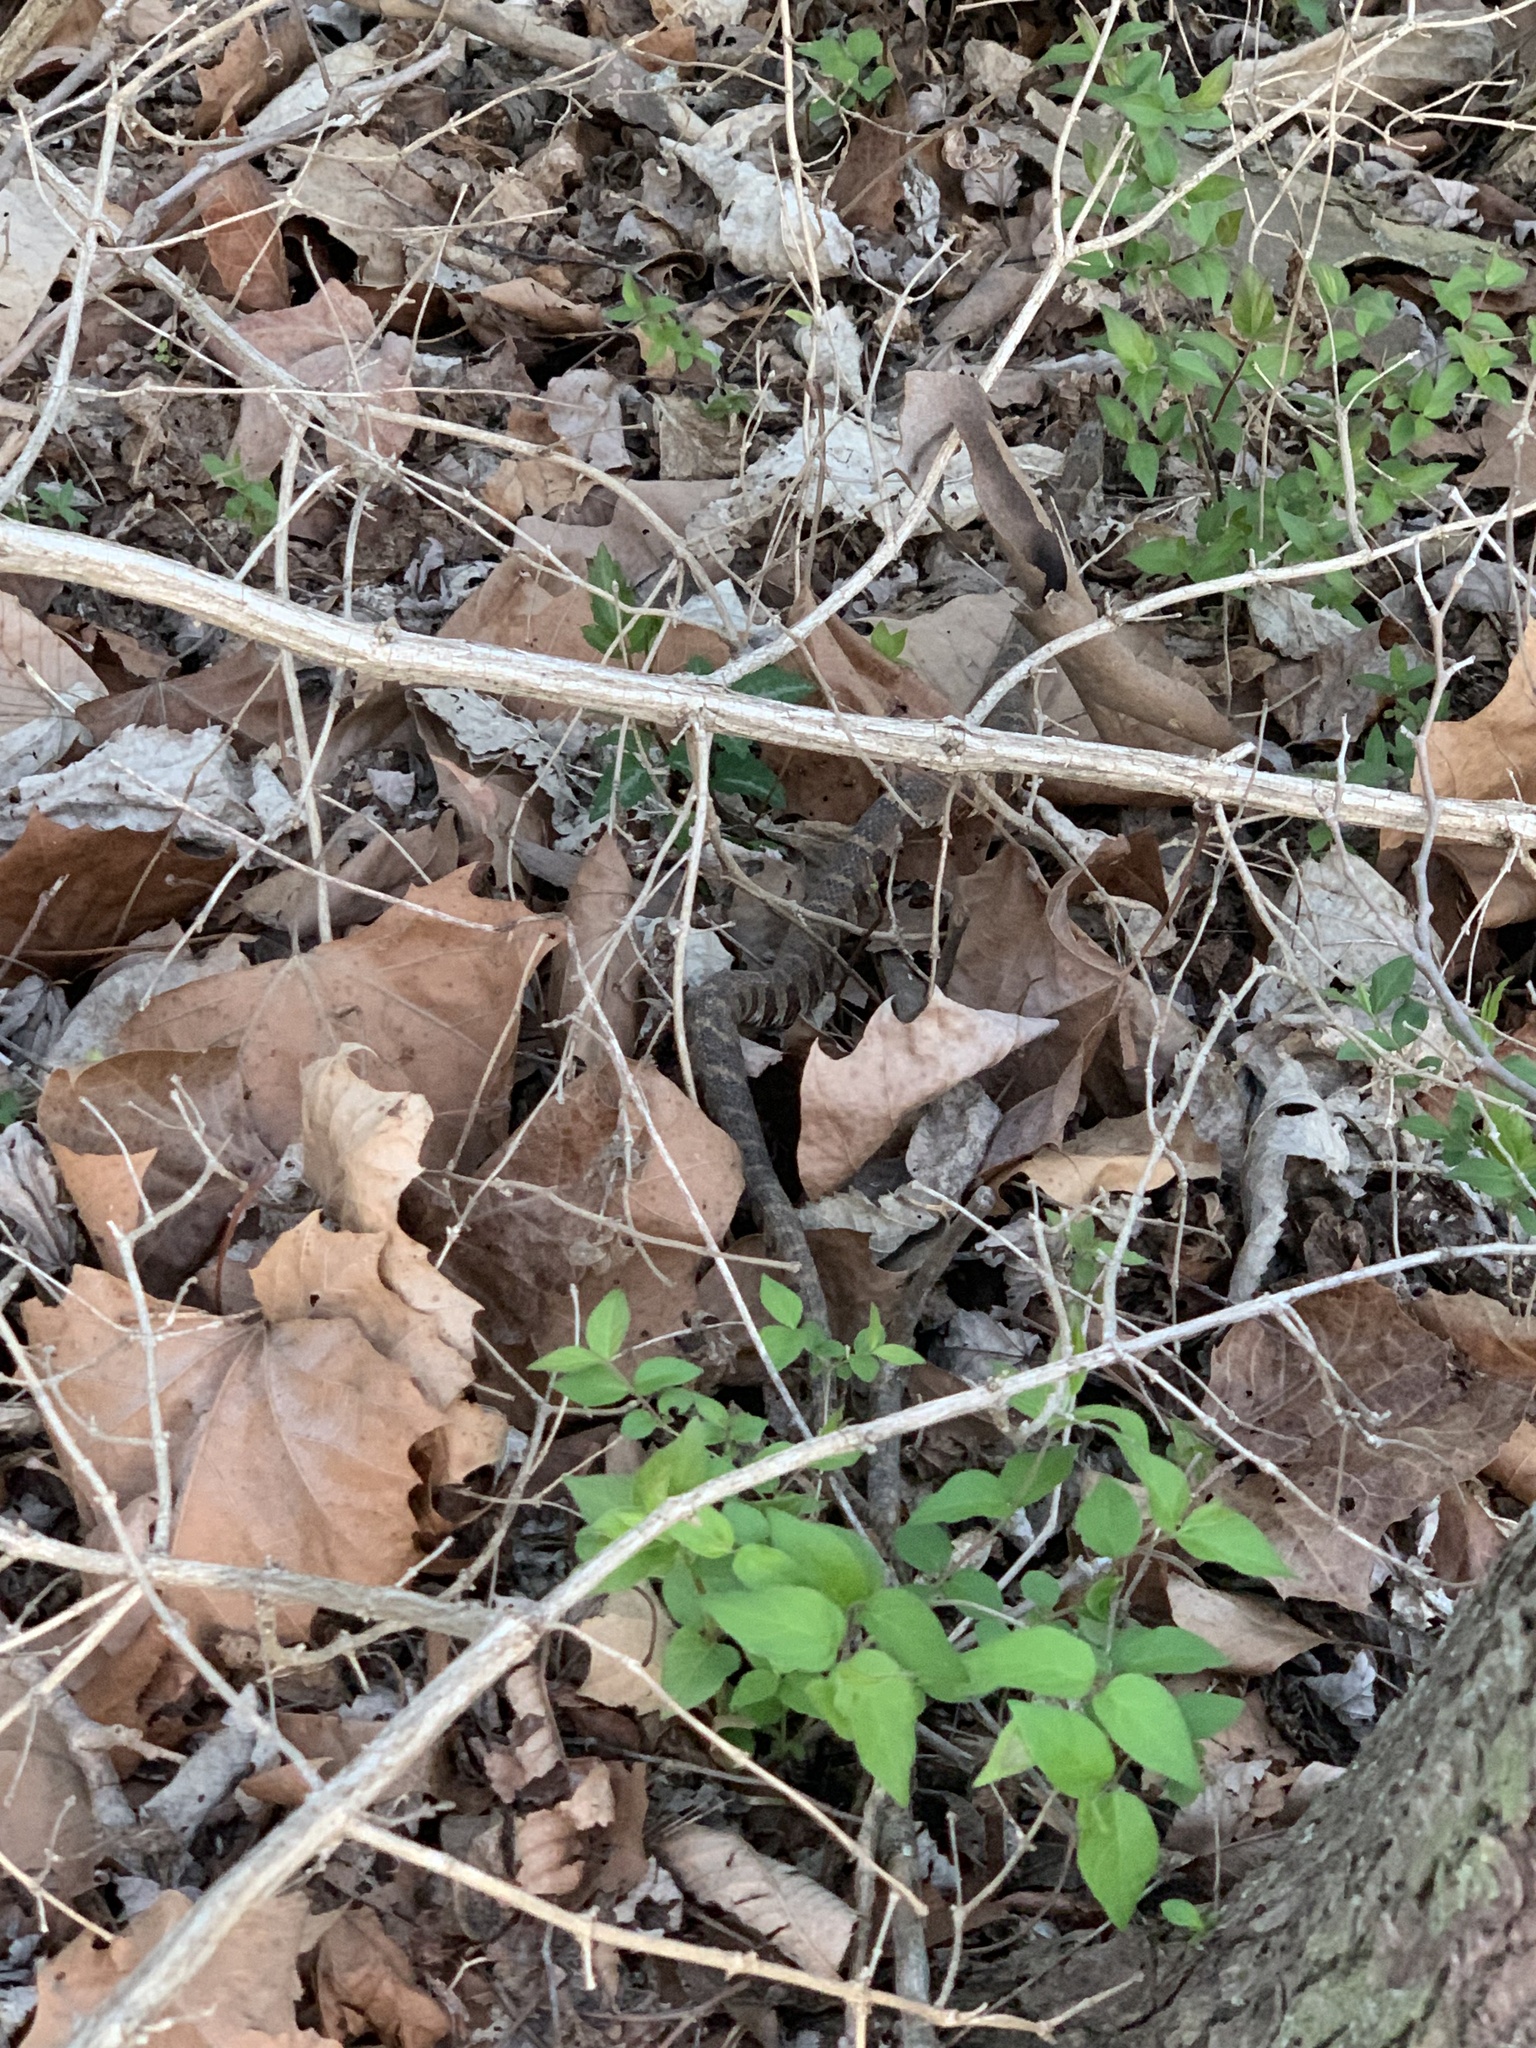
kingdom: Animalia
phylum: Chordata
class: Squamata
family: Colubridae
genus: Nerodia
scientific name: Nerodia sipedon
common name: Northern water snake
